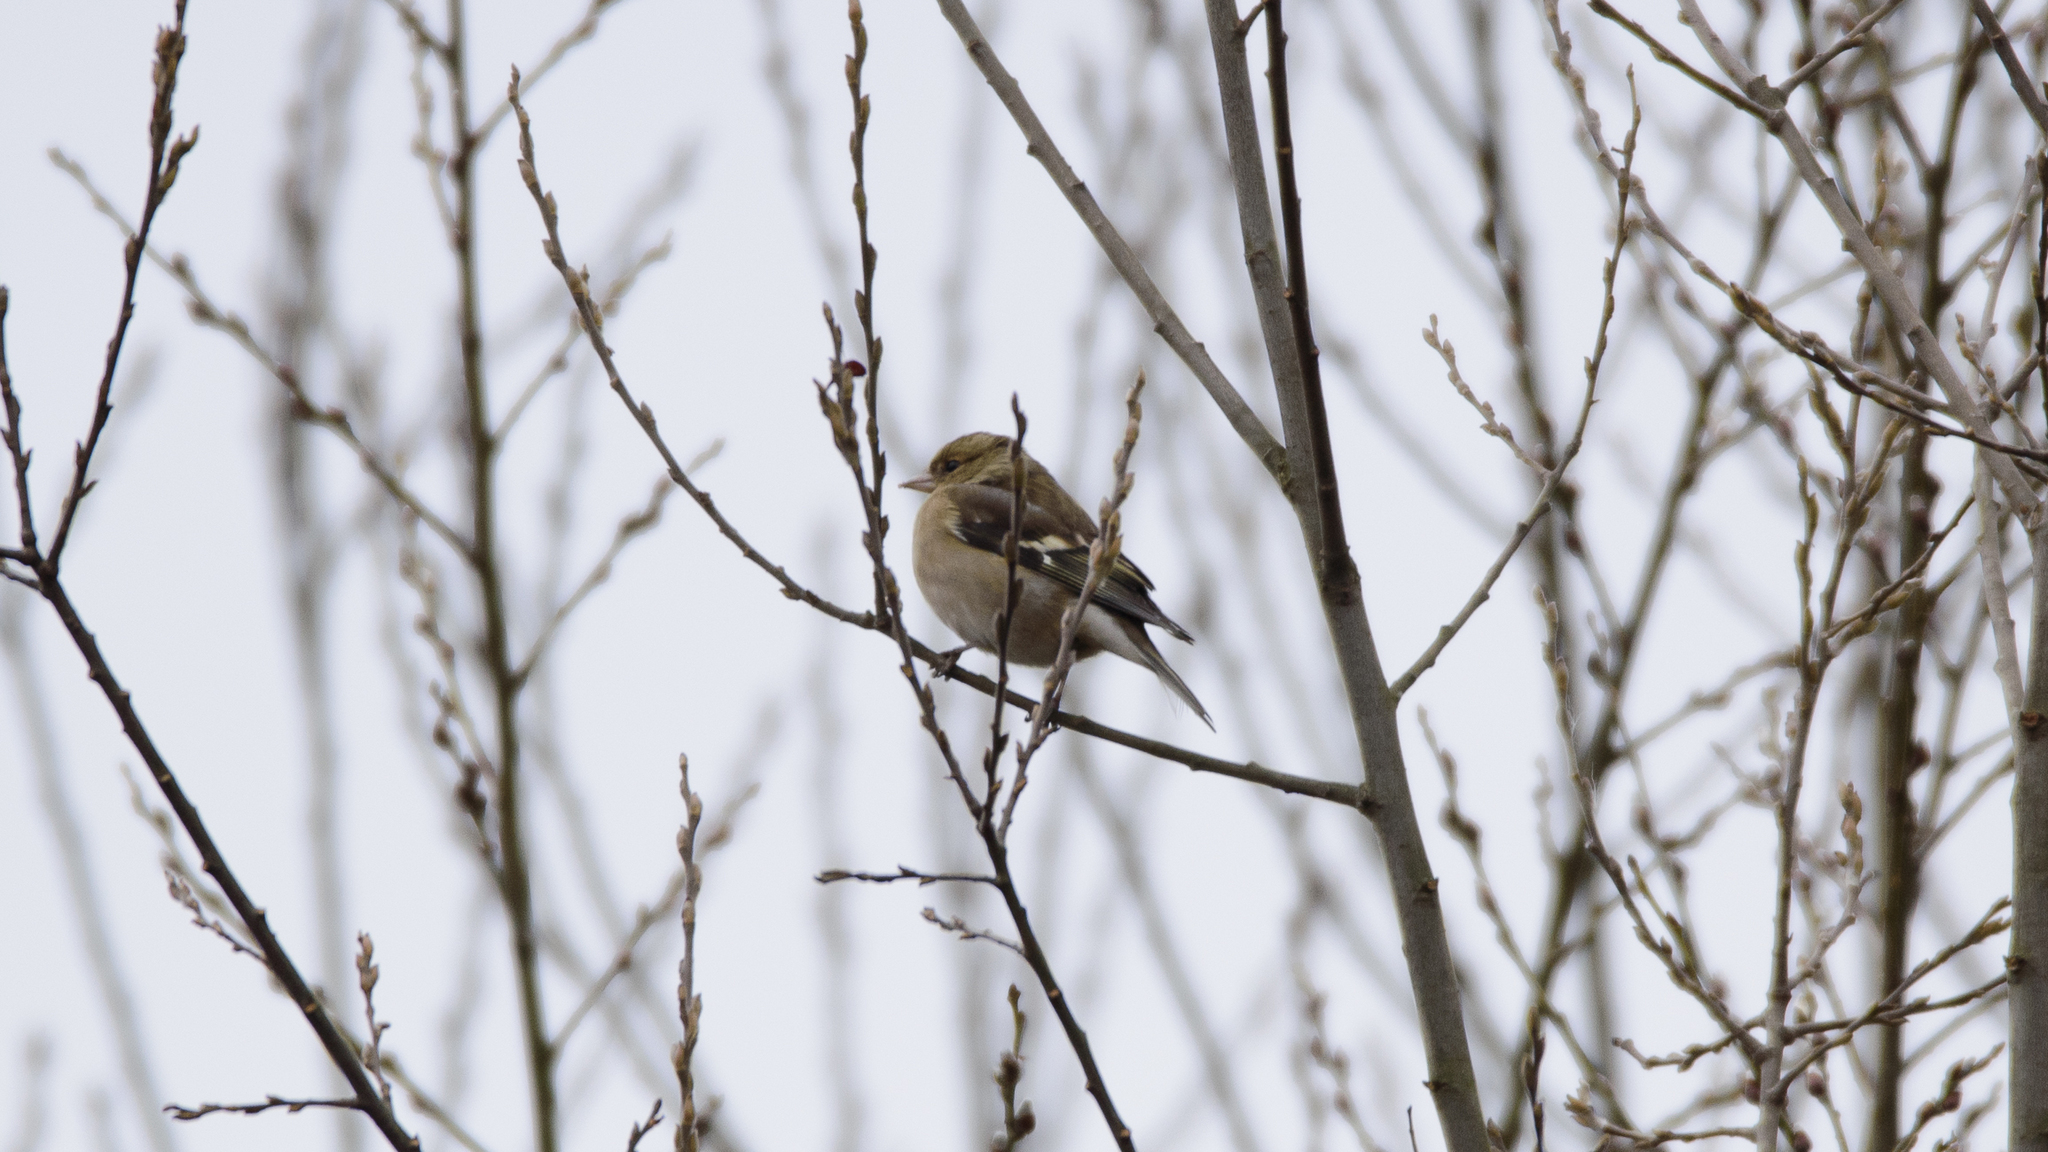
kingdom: Animalia
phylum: Chordata
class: Aves
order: Passeriformes
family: Fringillidae
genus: Fringilla
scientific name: Fringilla coelebs
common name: Common chaffinch
